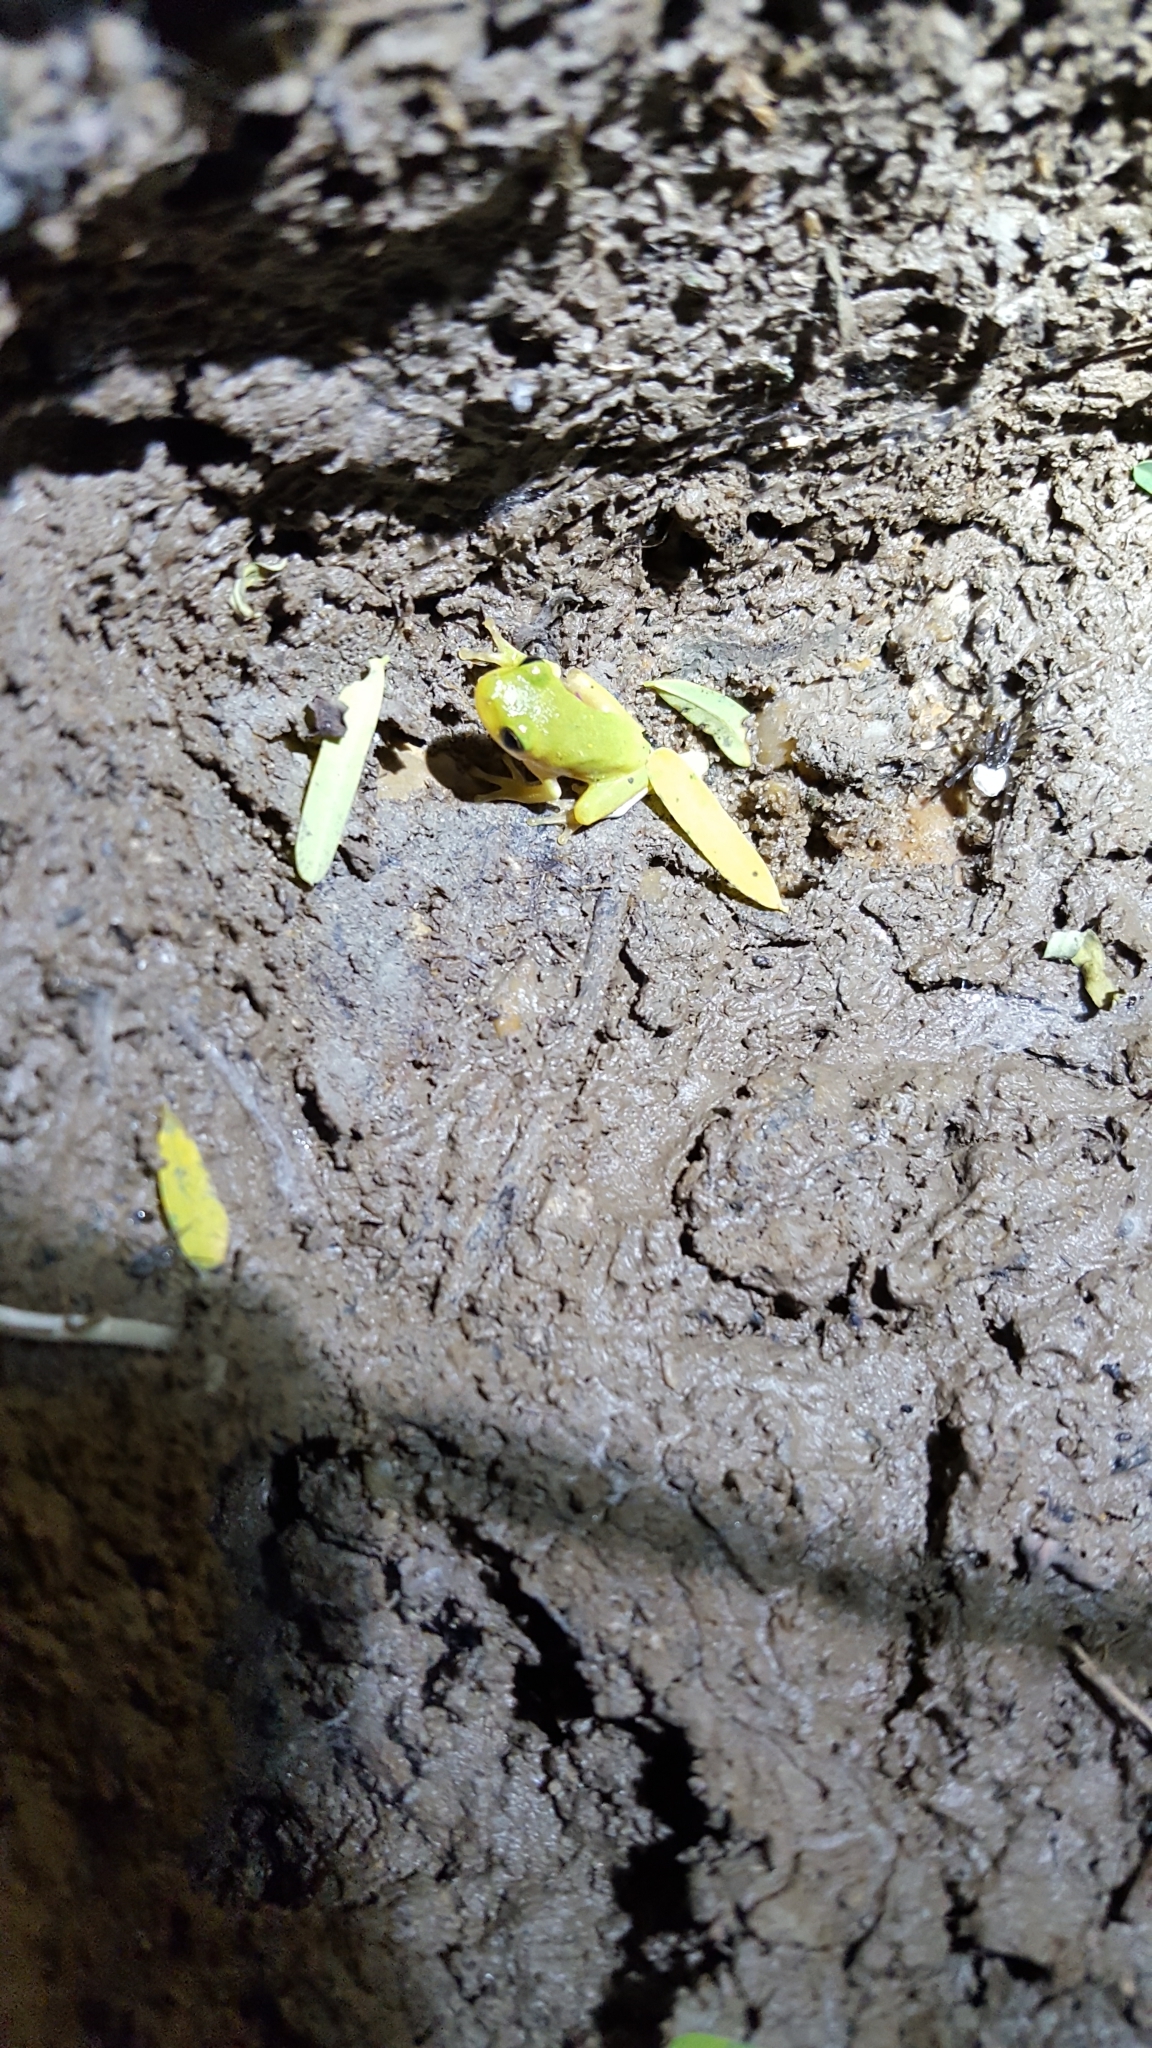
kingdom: Animalia
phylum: Chordata
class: Amphibia
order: Anura
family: Hylidae
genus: Dryophytes
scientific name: Dryophytes cinereus
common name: Green treefrog
